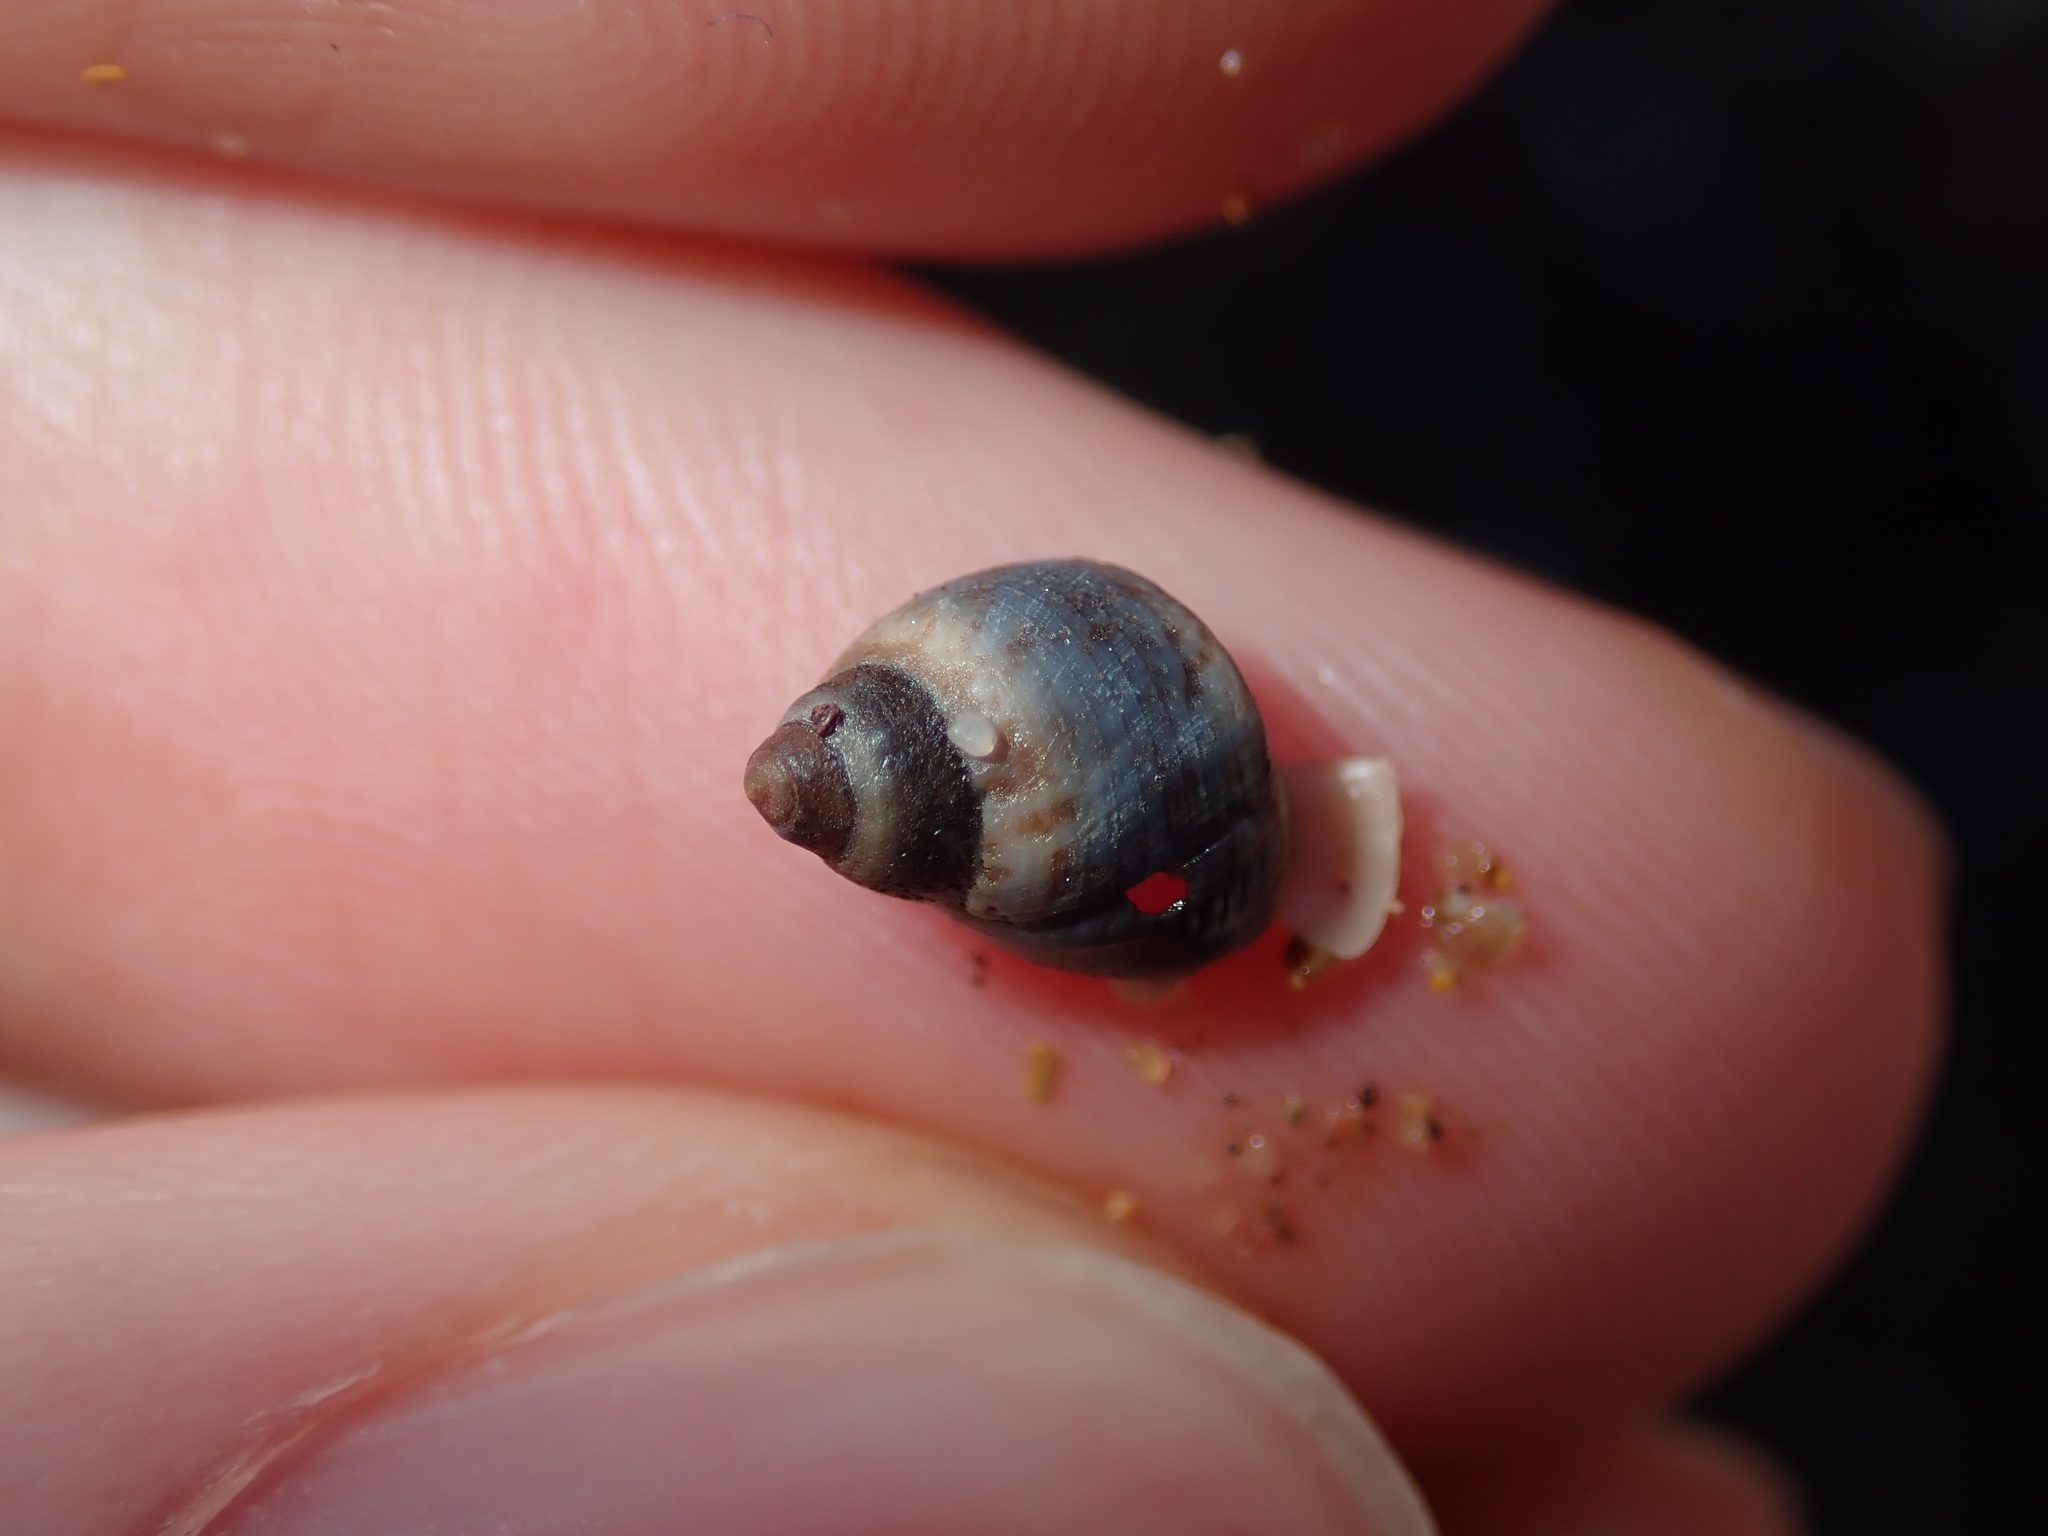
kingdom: Animalia
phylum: Mollusca
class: Gastropoda
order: Littorinimorpha
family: Littorinidae
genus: Austrolittorina
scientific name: Austrolittorina unifasciata
